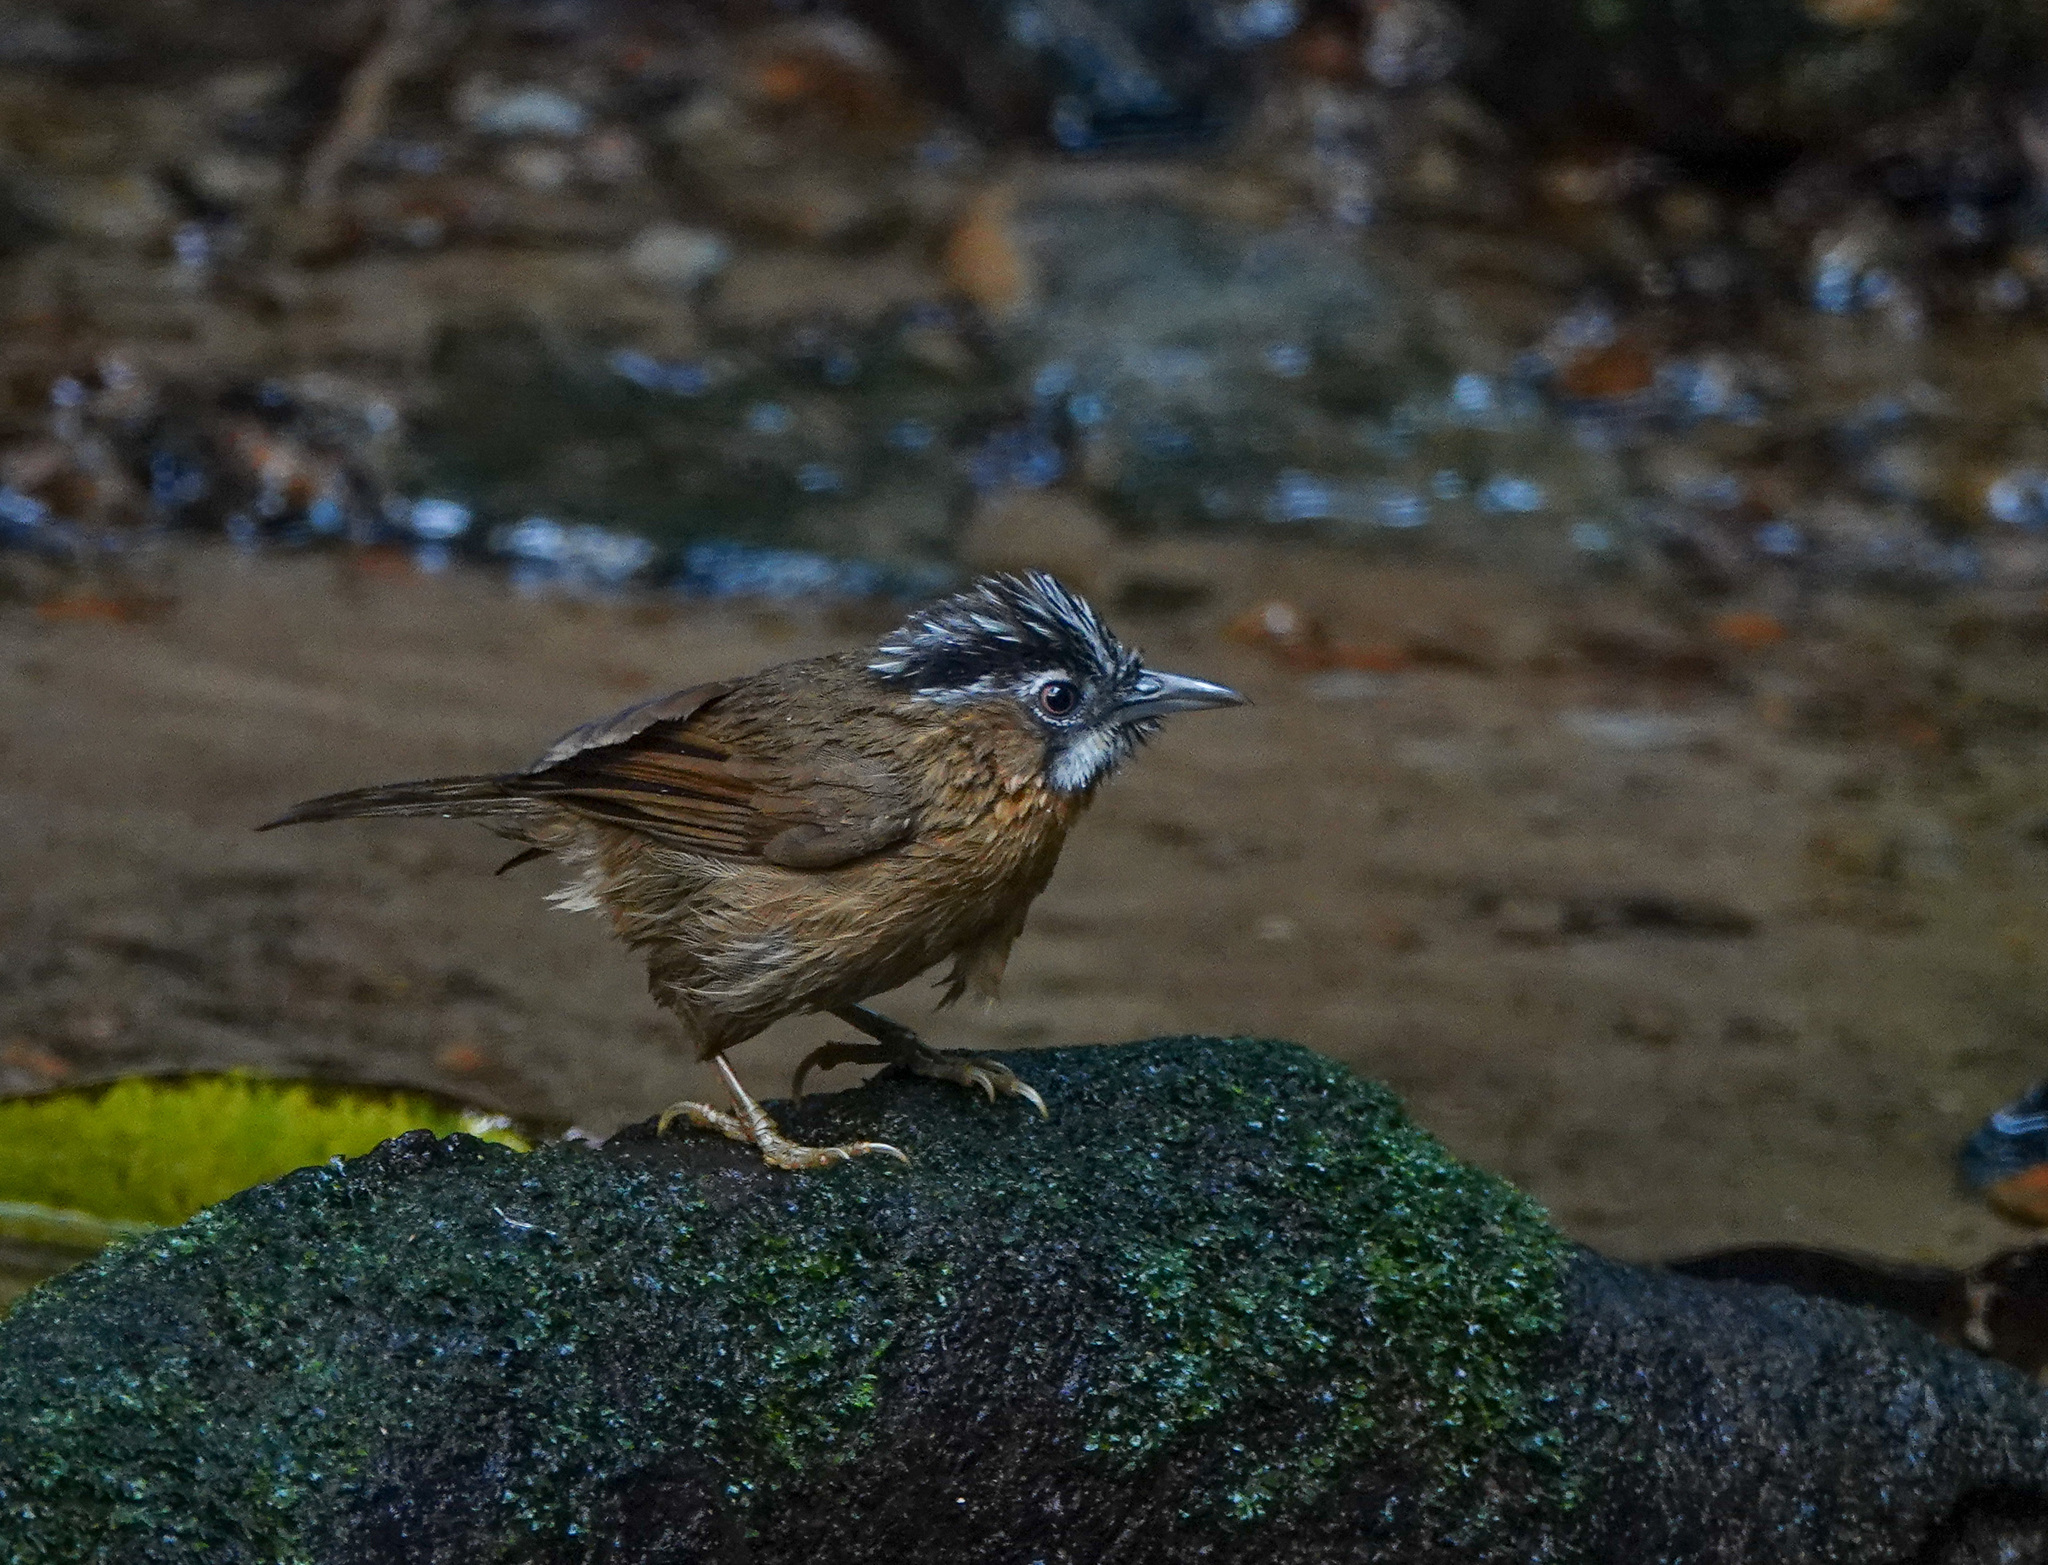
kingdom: Animalia
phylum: Chordata
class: Aves
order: Passeriformes
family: Timaliidae
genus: Stachyris
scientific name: Stachyris nigriceps
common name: Grey-throated babbler
